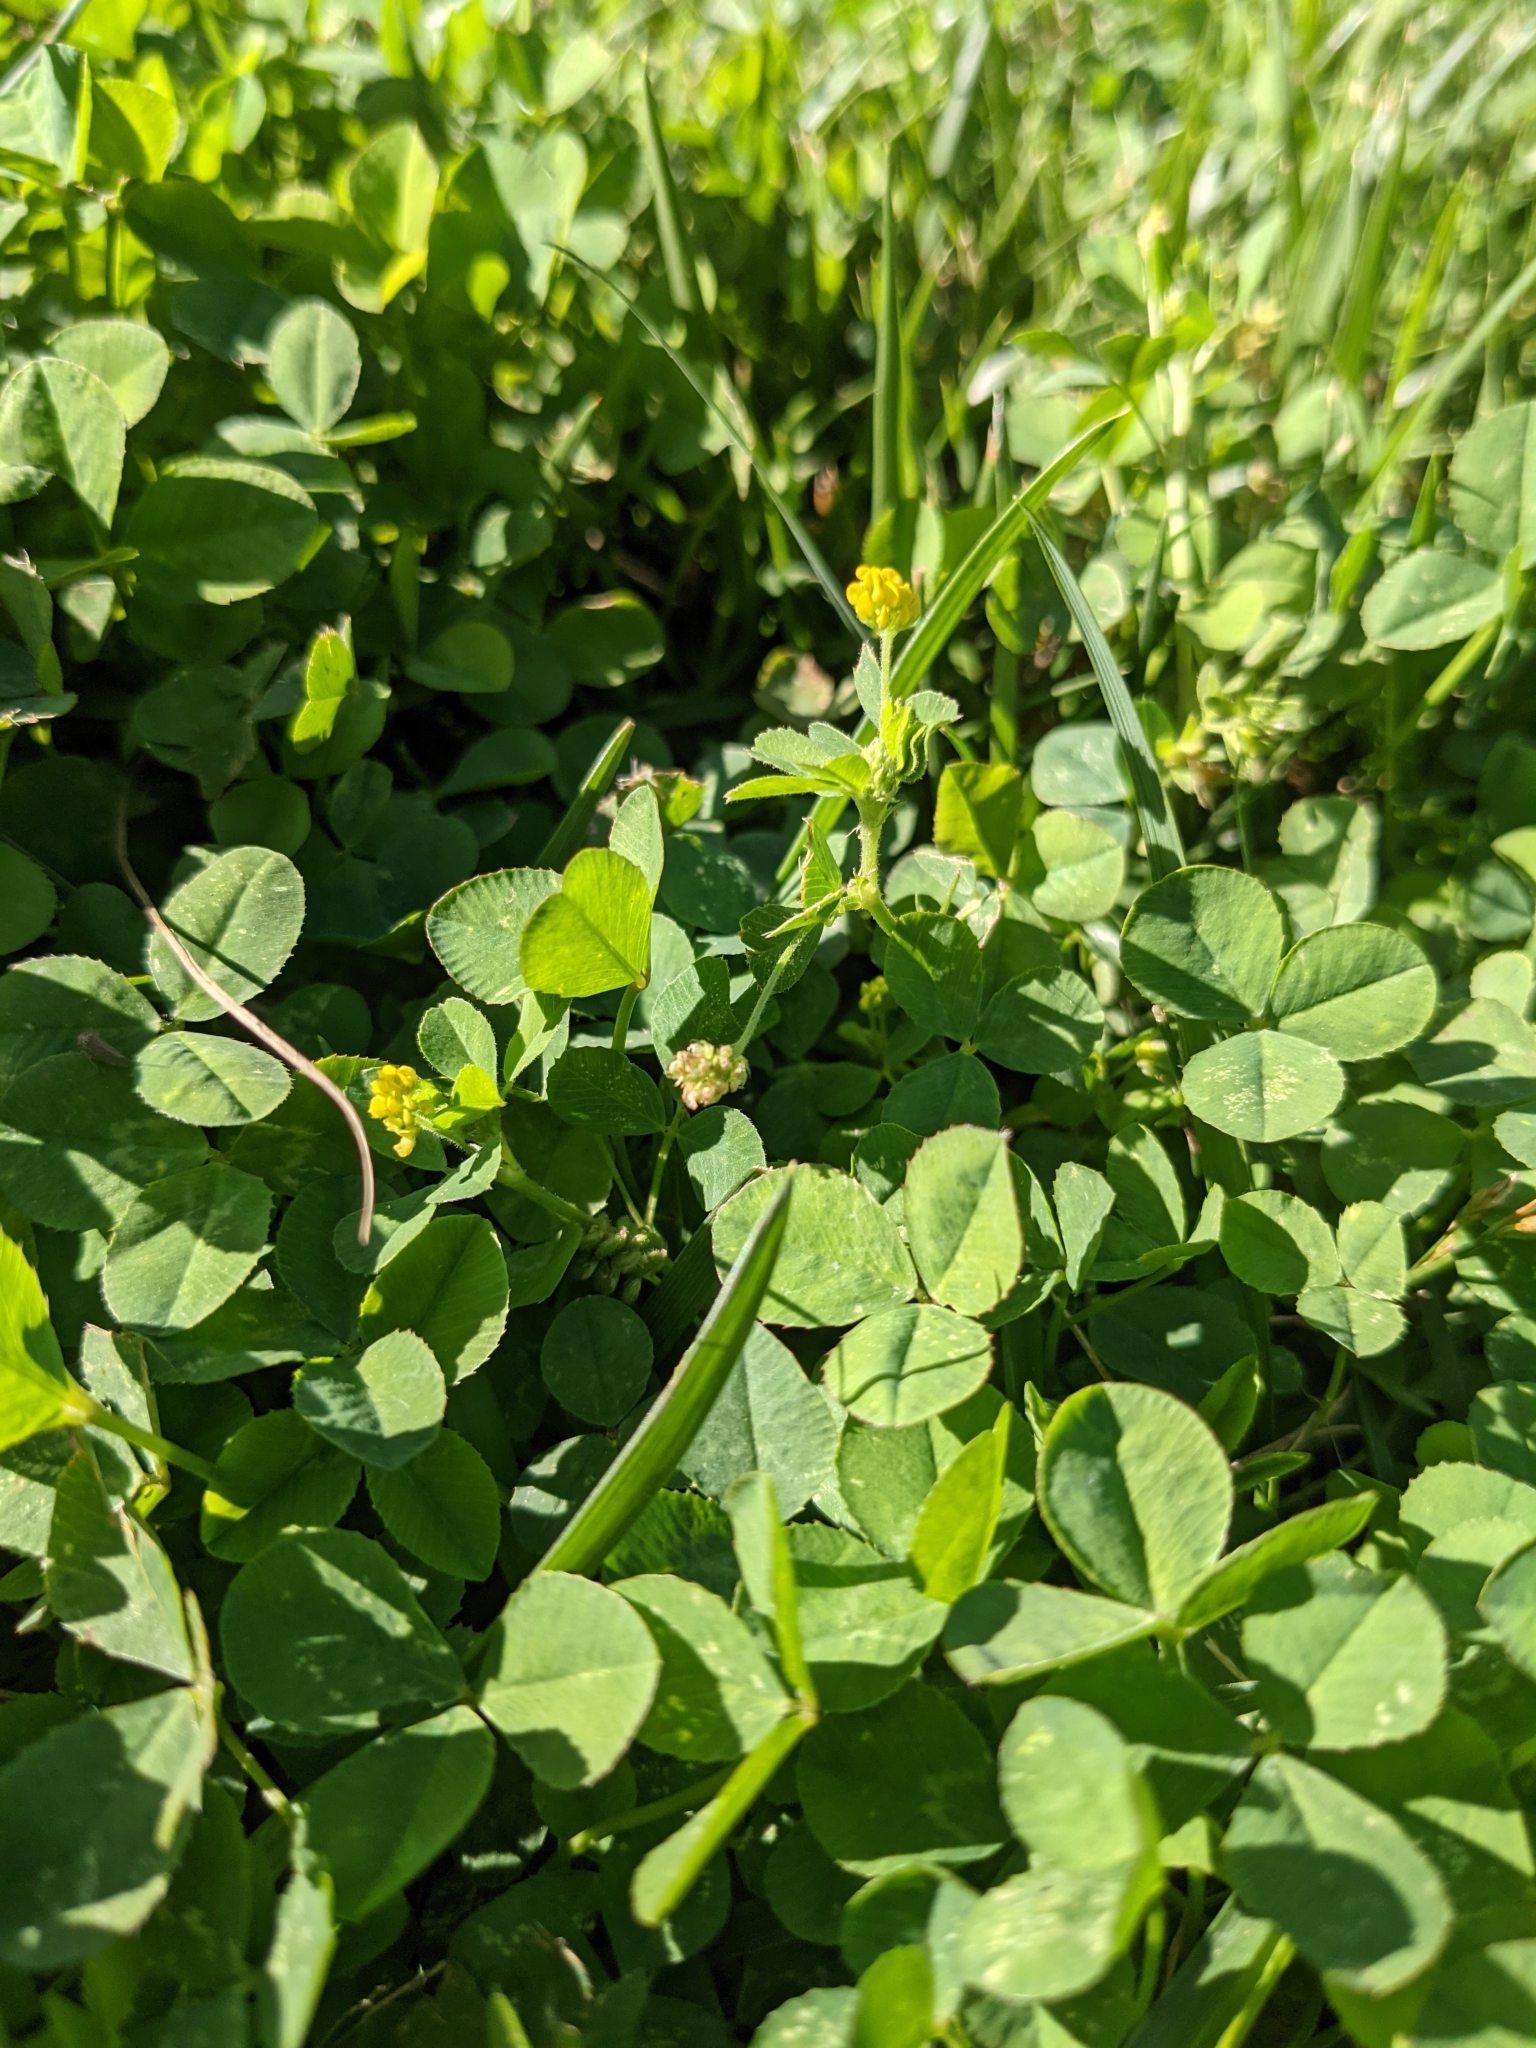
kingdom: Plantae
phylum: Tracheophyta
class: Magnoliopsida
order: Fabales
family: Fabaceae
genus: Medicago
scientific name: Medicago lupulina
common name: Black medick
